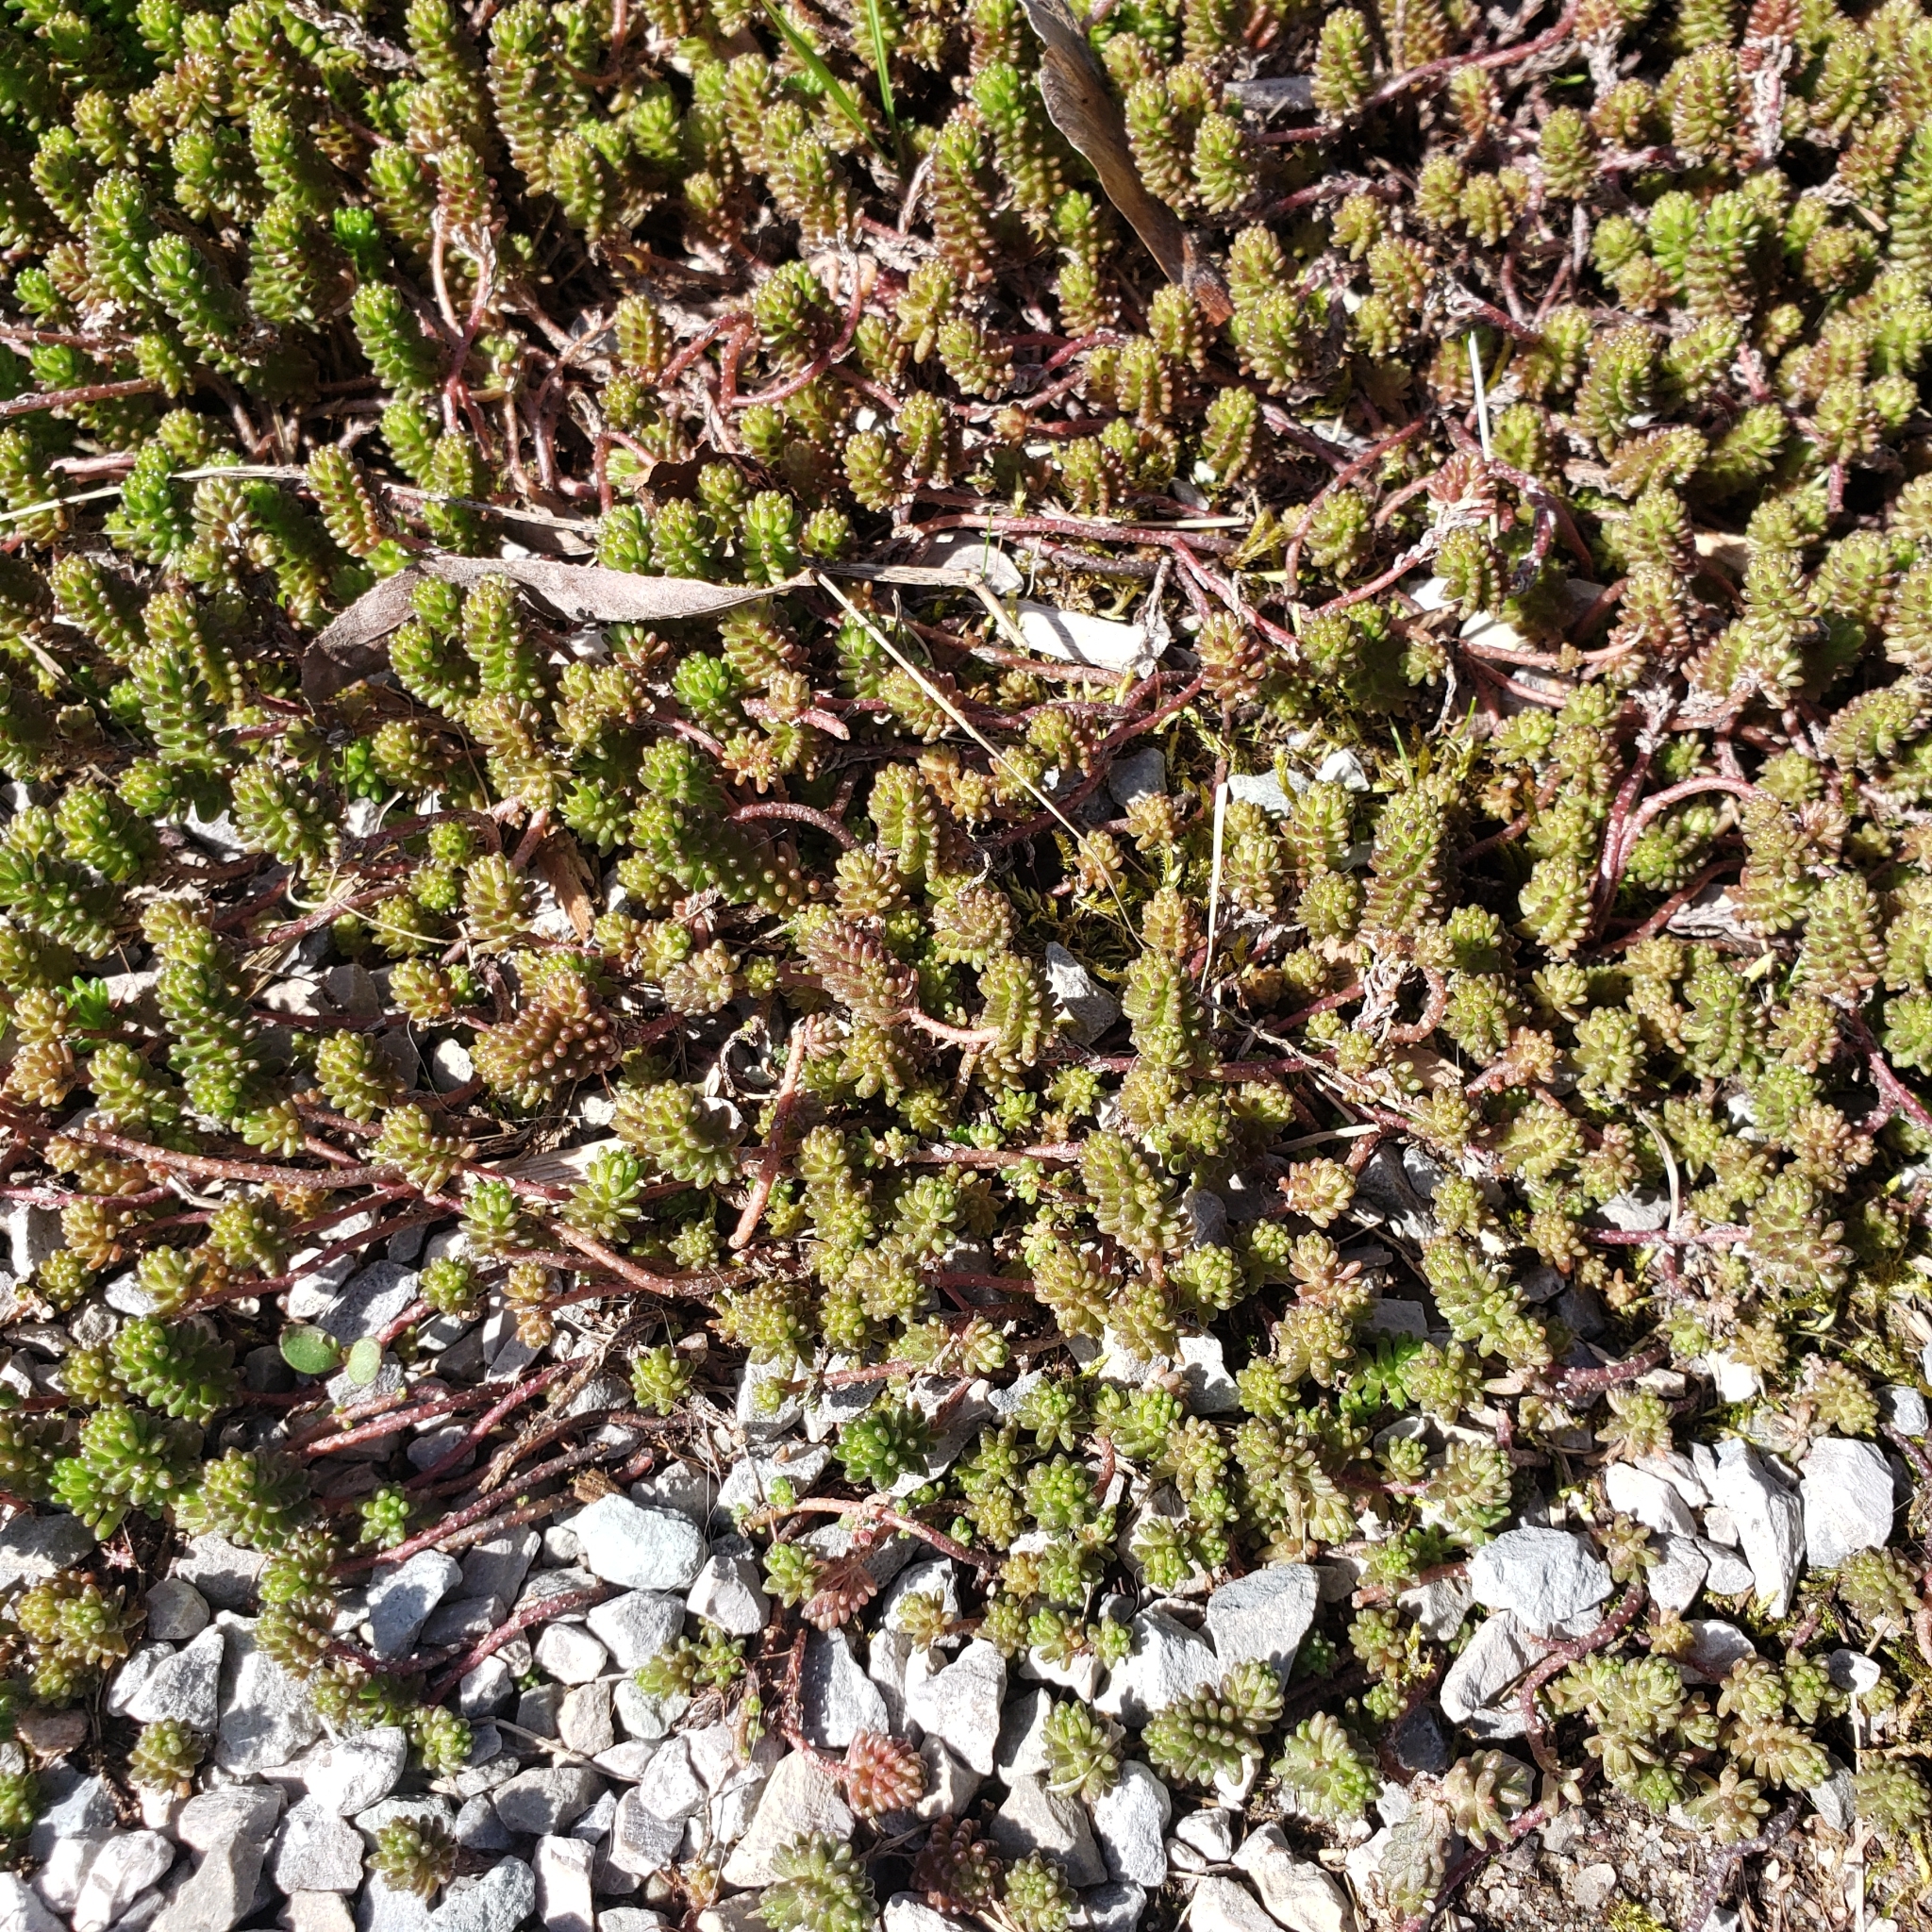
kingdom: Plantae
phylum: Tracheophyta
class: Magnoliopsida
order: Saxifragales
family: Crassulaceae
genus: Sedum
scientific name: Sedum sexangulare
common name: Tasteless stonecrop
